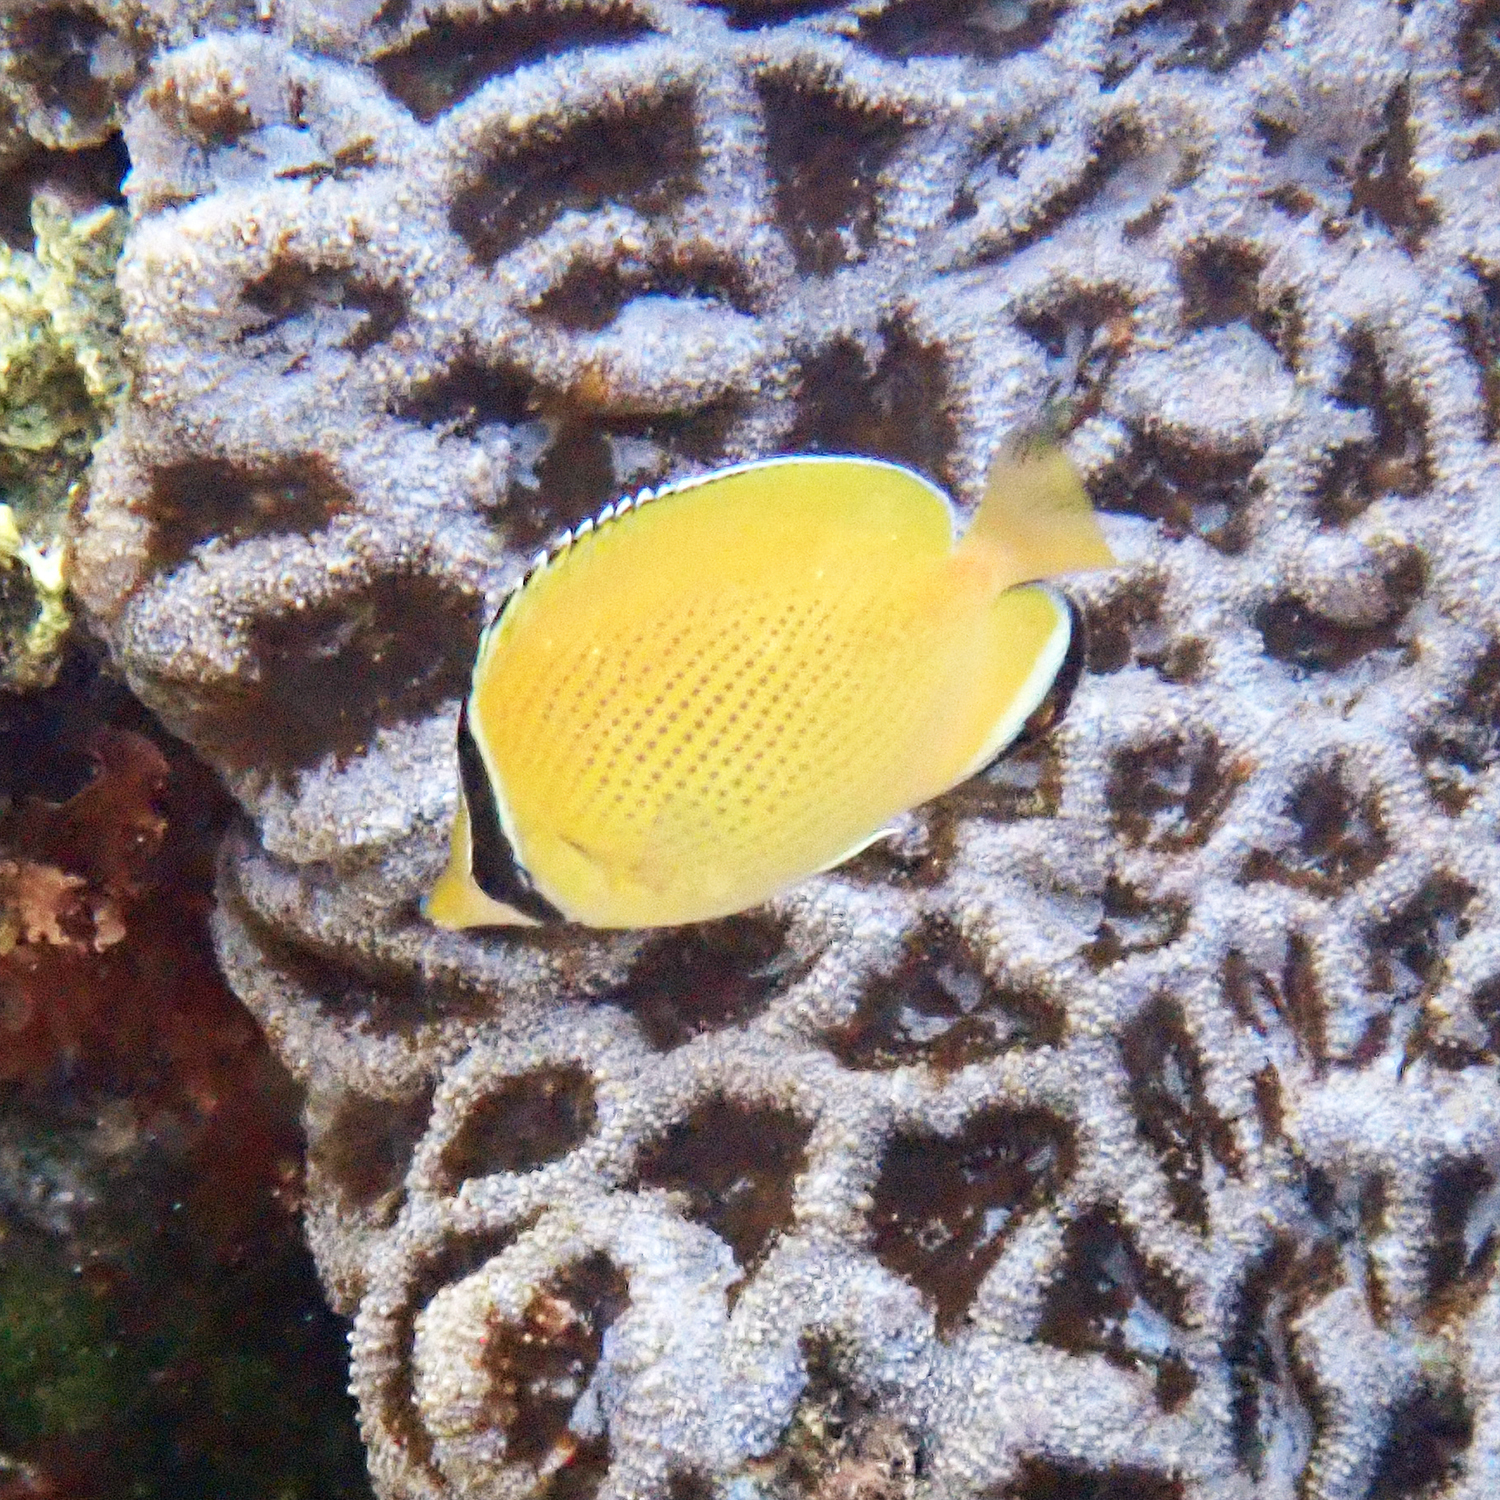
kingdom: Animalia
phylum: Chordata
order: Perciformes
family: Chaetodontidae
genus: Chaetodon
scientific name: Chaetodon citrinellus
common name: Speckled butterflyfish
